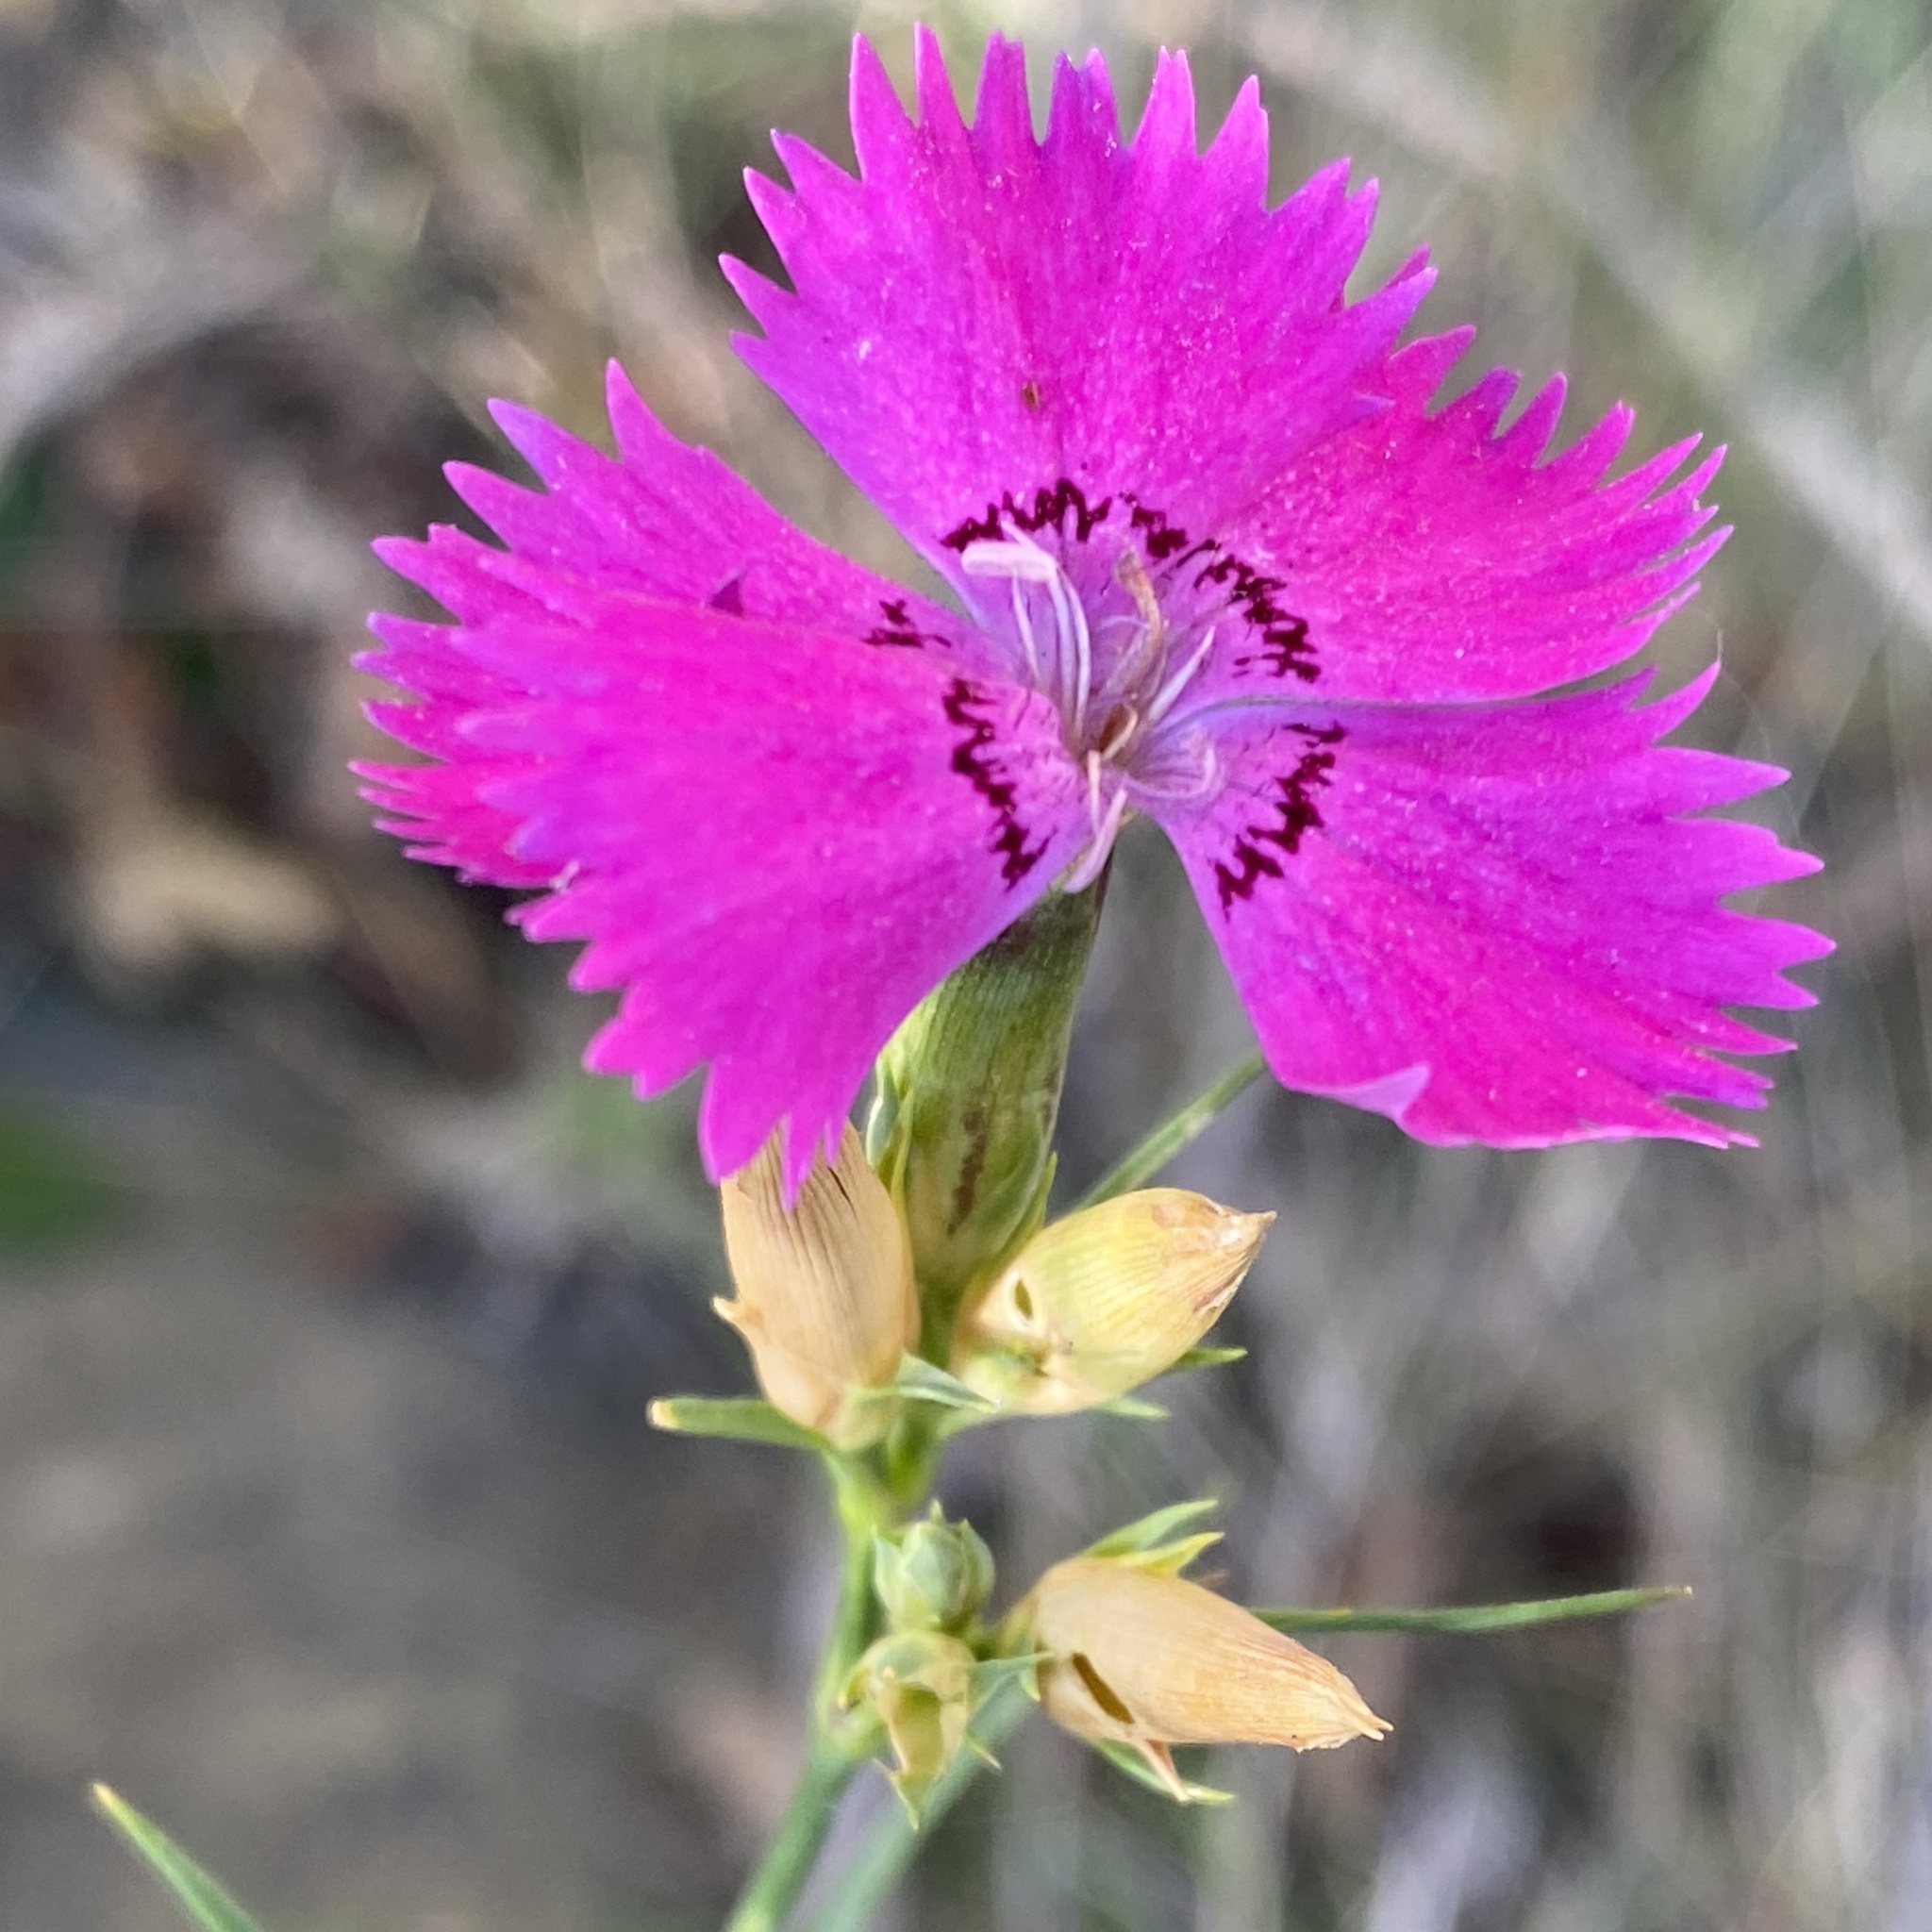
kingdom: Plantae
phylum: Tracheophyta
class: Magnoliopsida
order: Caryophyllales
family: Caryophyllaceae
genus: Dianthus
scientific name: Dianthus seguieri
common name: Ragged pink
